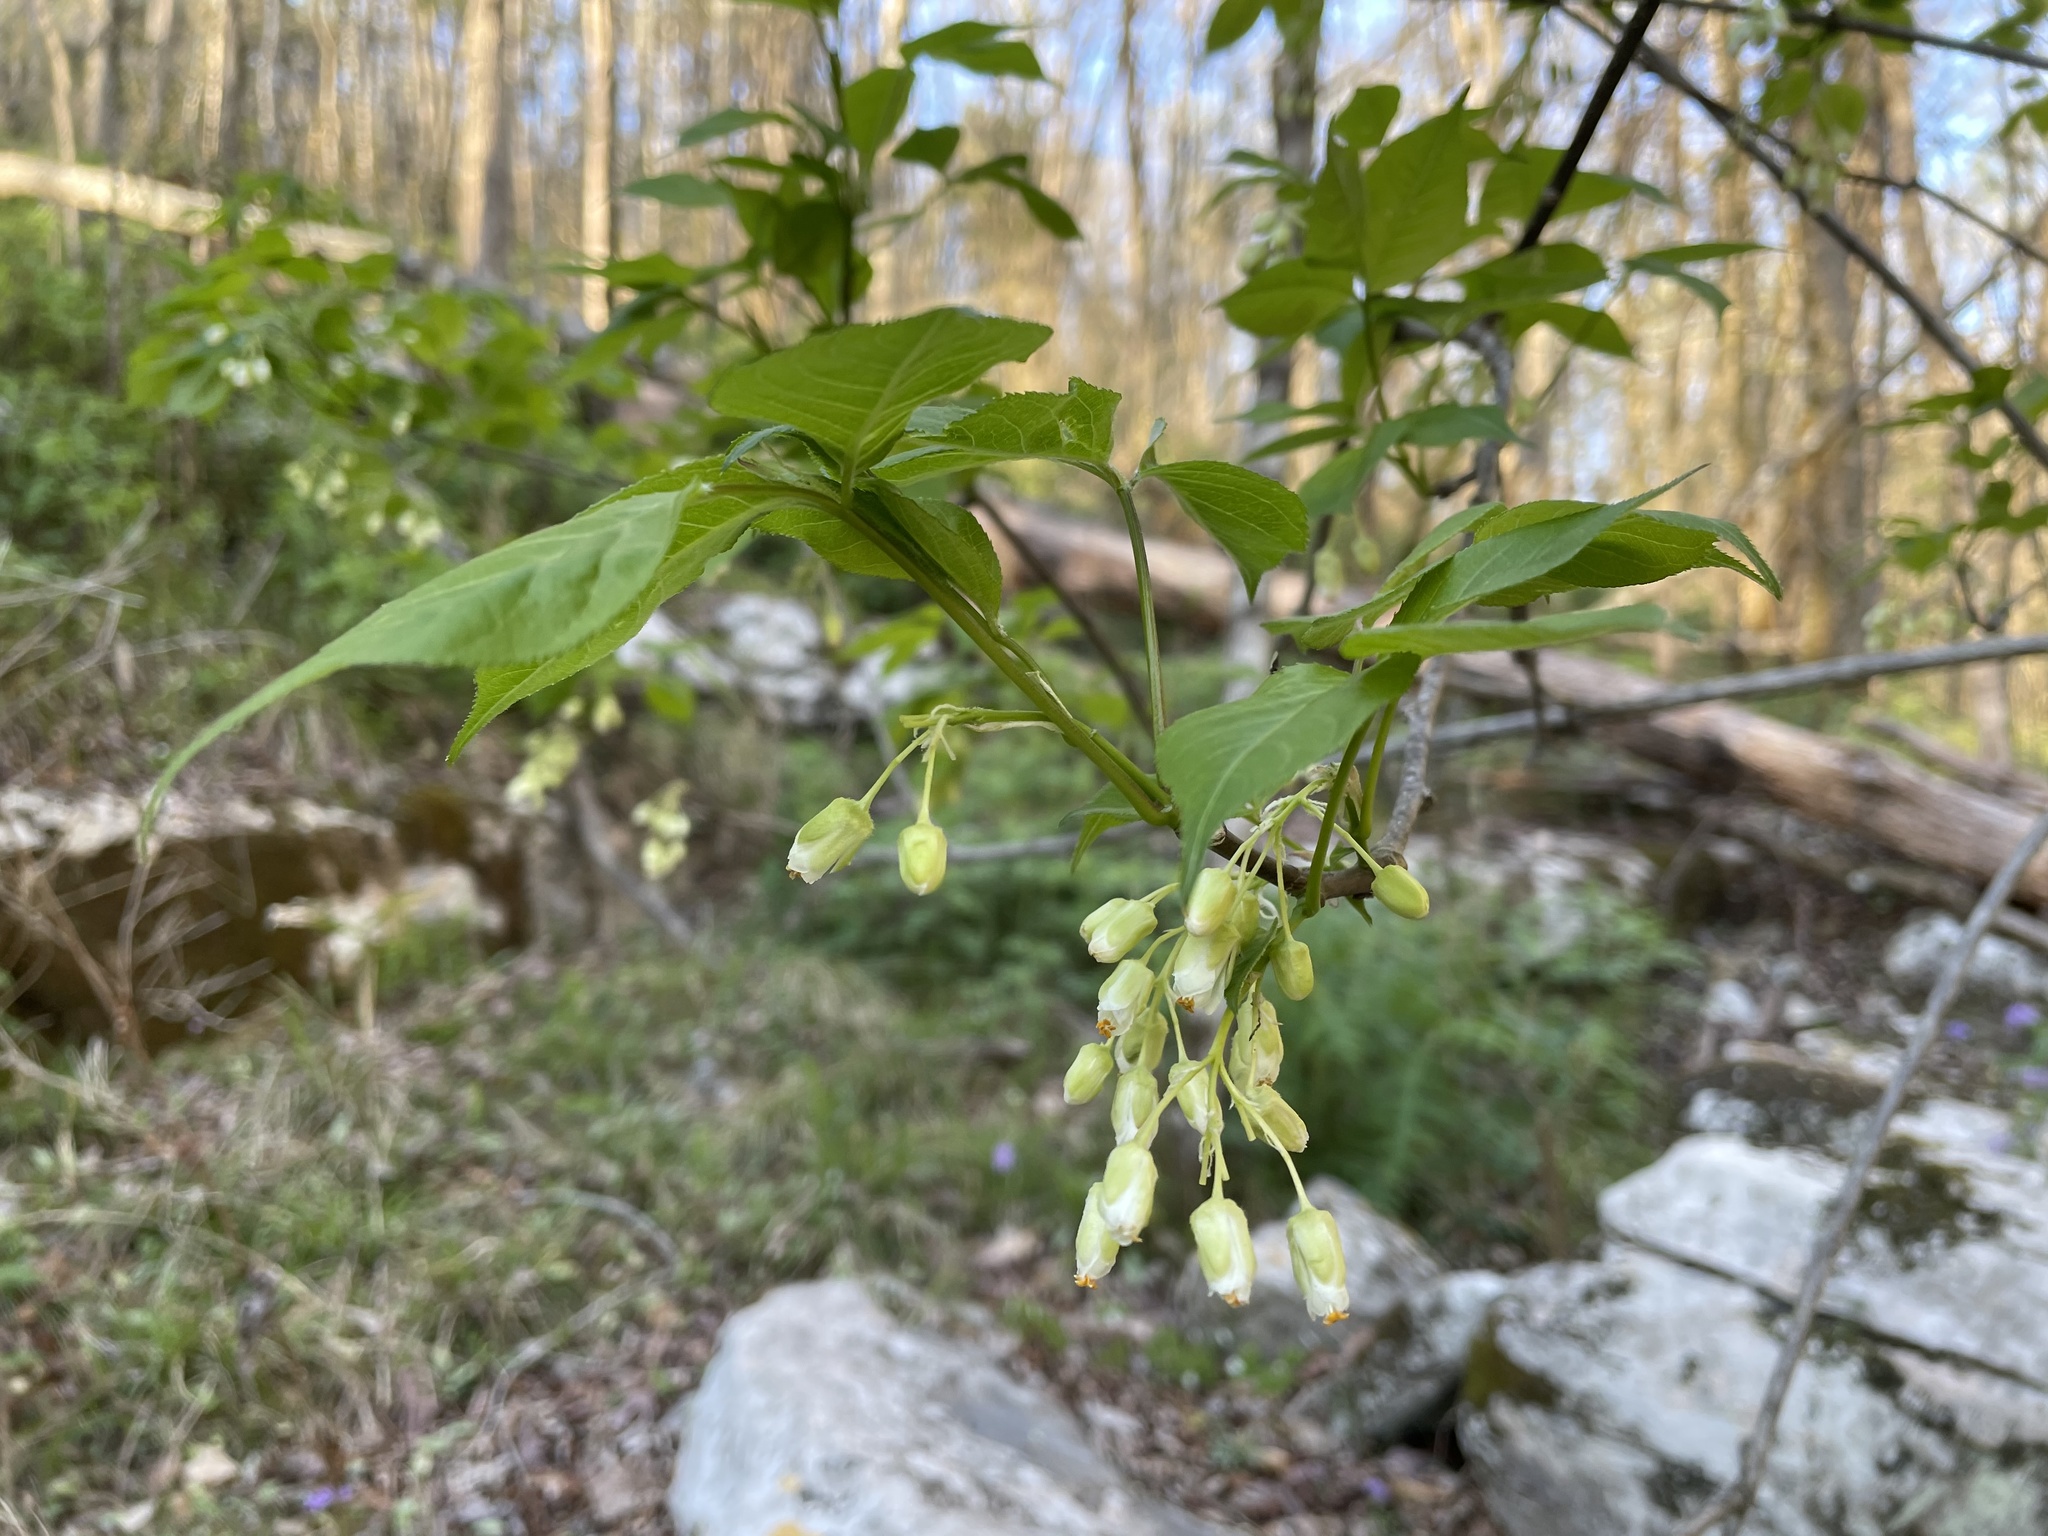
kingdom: Plantae
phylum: Tracheophyta
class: Magnoliopsida
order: Crossosomatales
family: Staphyleaceae
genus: Staphylea
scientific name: Staphylea trifolia
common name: American bladdernut
